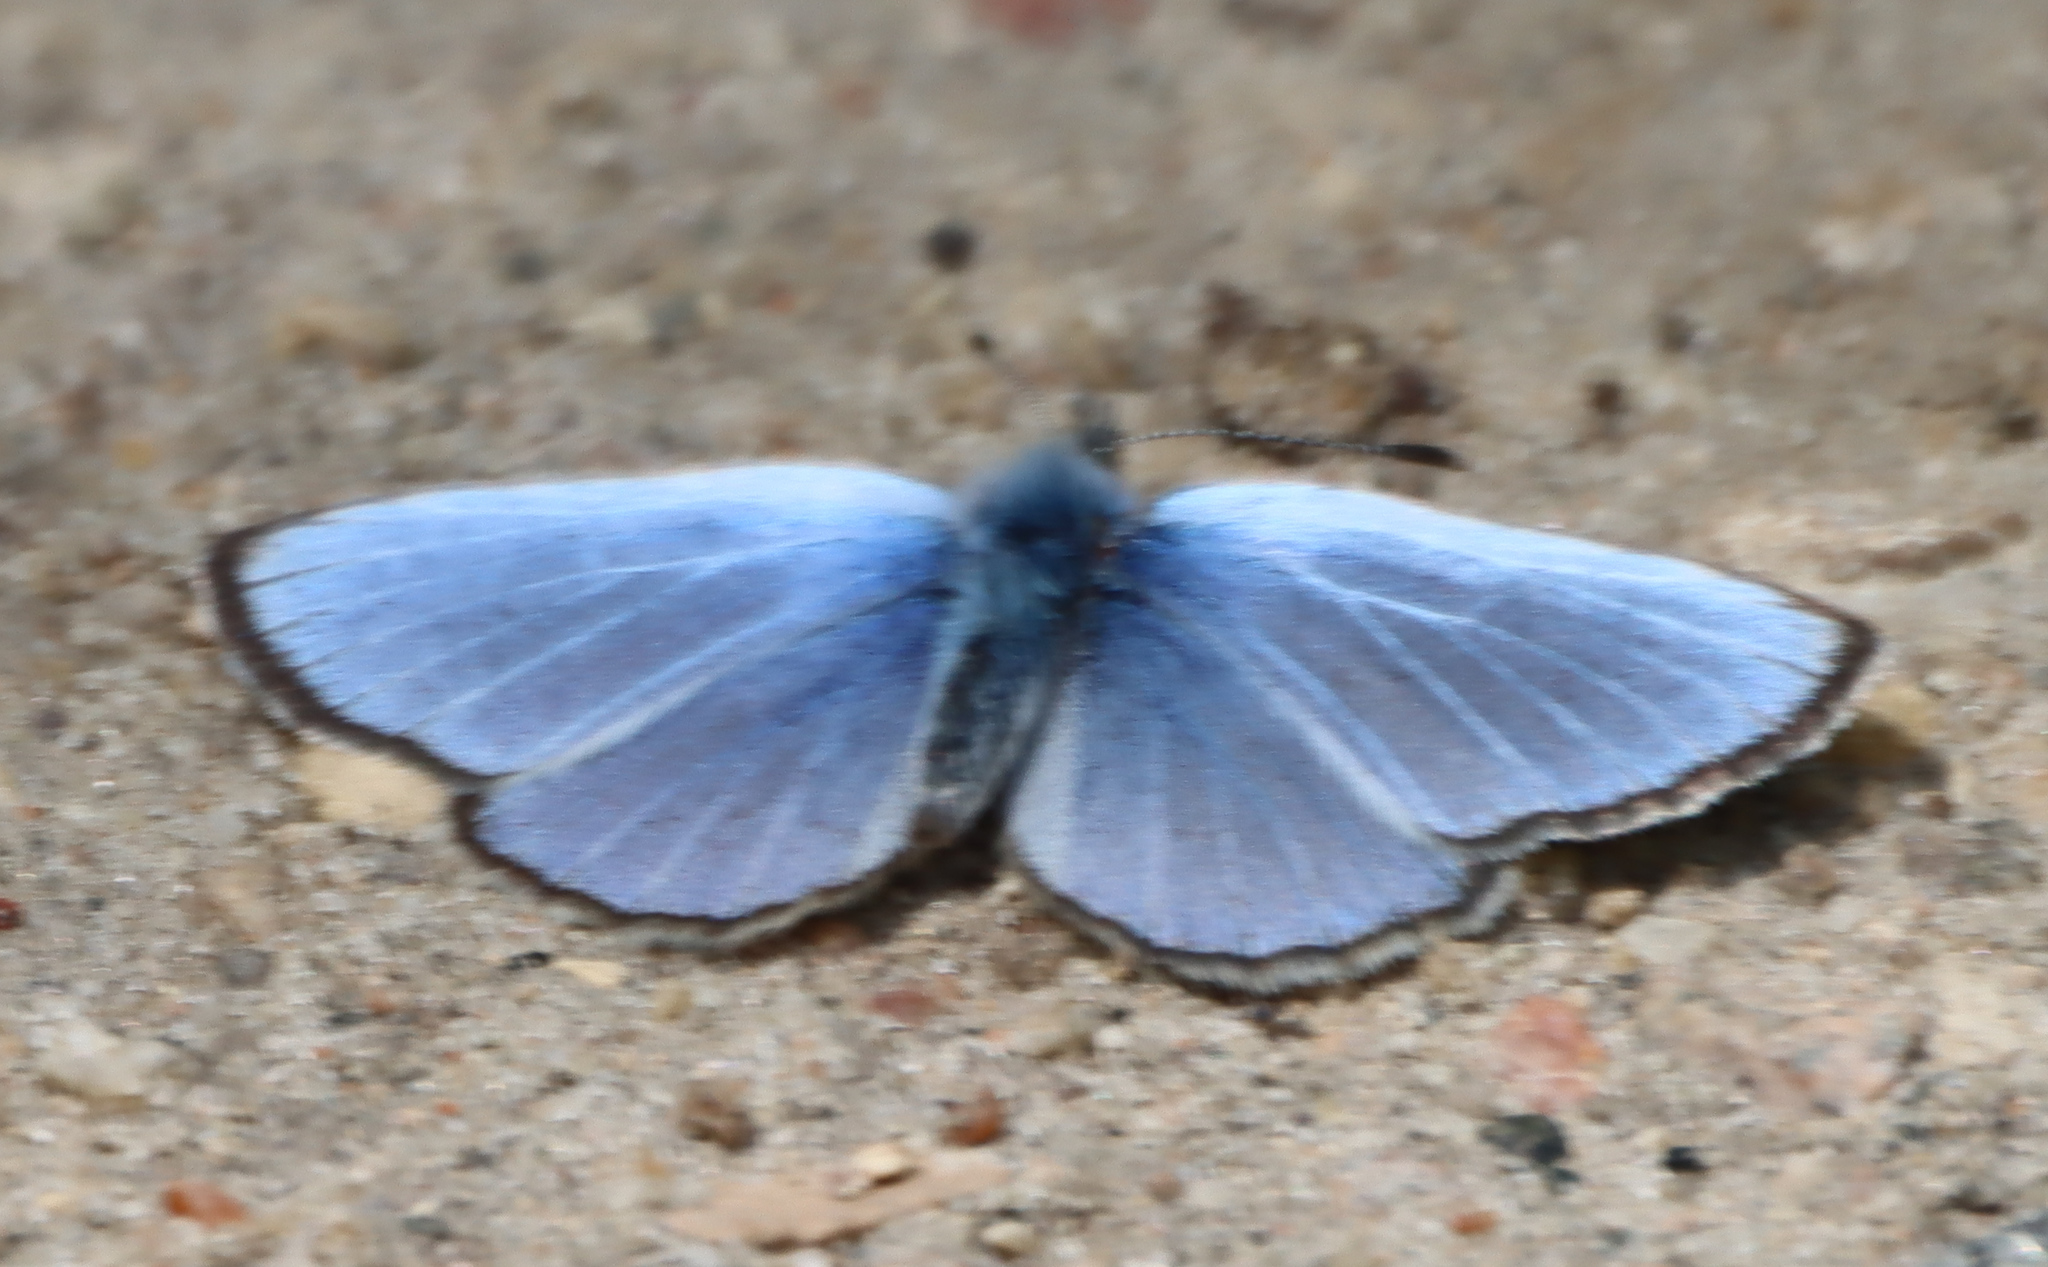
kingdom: Animalia
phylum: Arthropoda
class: Insecta
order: Lepidoptera
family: Lycaenidae
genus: Glaucopsyche
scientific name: Glaucopsyche lygdamus
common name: Silvery blue
